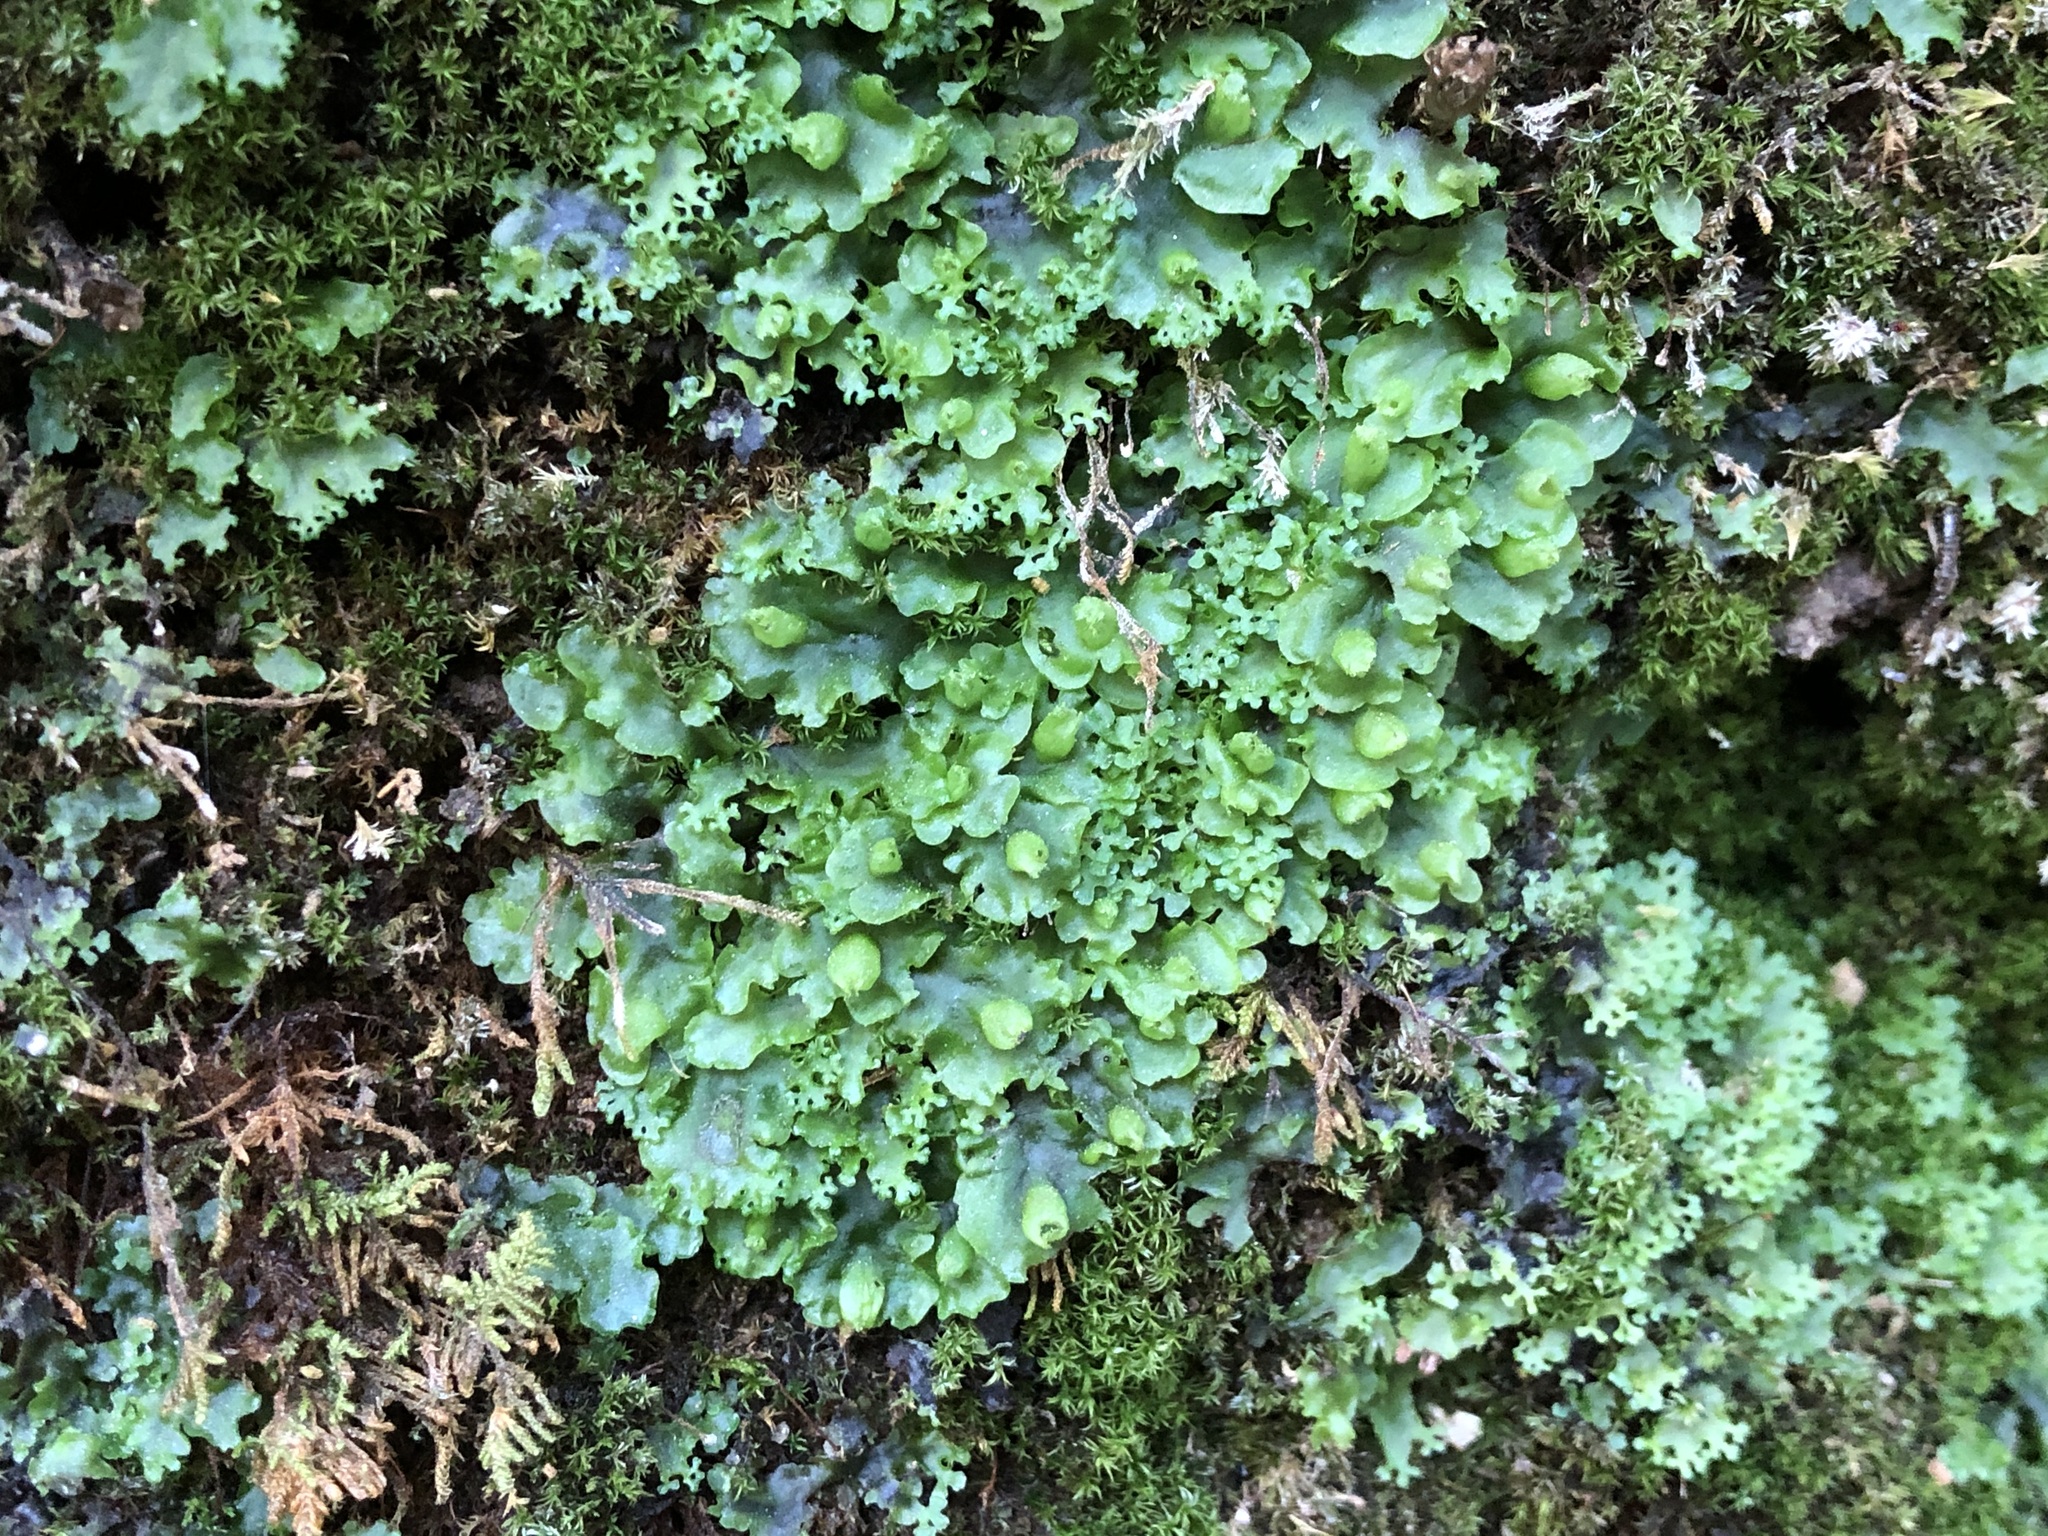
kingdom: Plantae
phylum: Marchantiophyta
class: Jungermanniopsida
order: Pelliales
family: Pelliaceae
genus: Apopellia
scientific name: Apopellia endiviifolia
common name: Endive pellia
